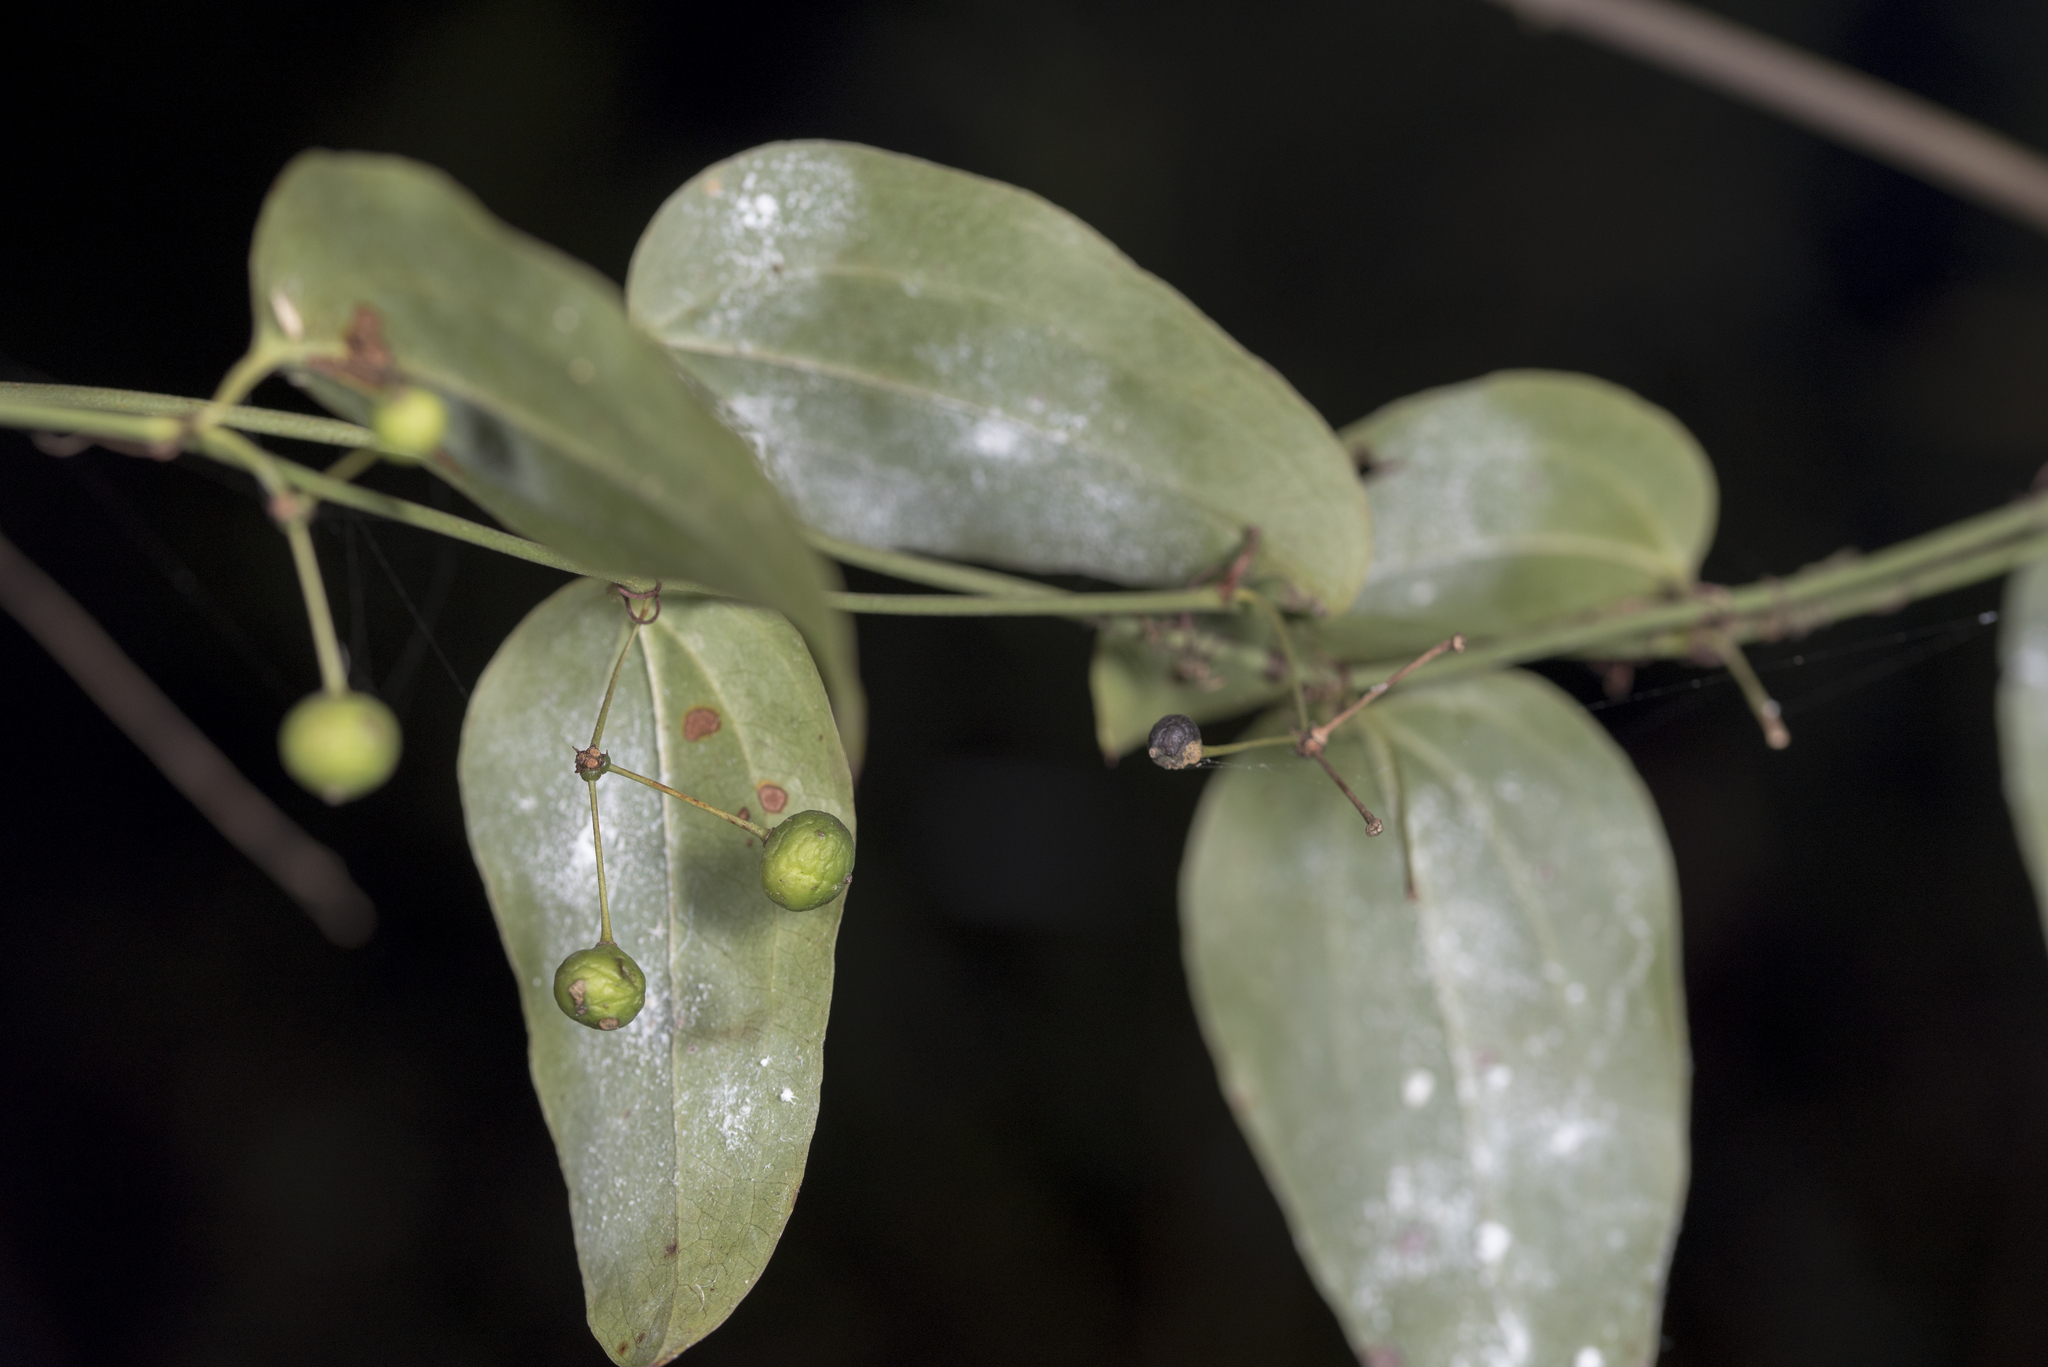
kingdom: Plantae
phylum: Tracheophyta
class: Liliopsida
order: Liliales
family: Smilacaceae
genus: Smilax
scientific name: Smilax
